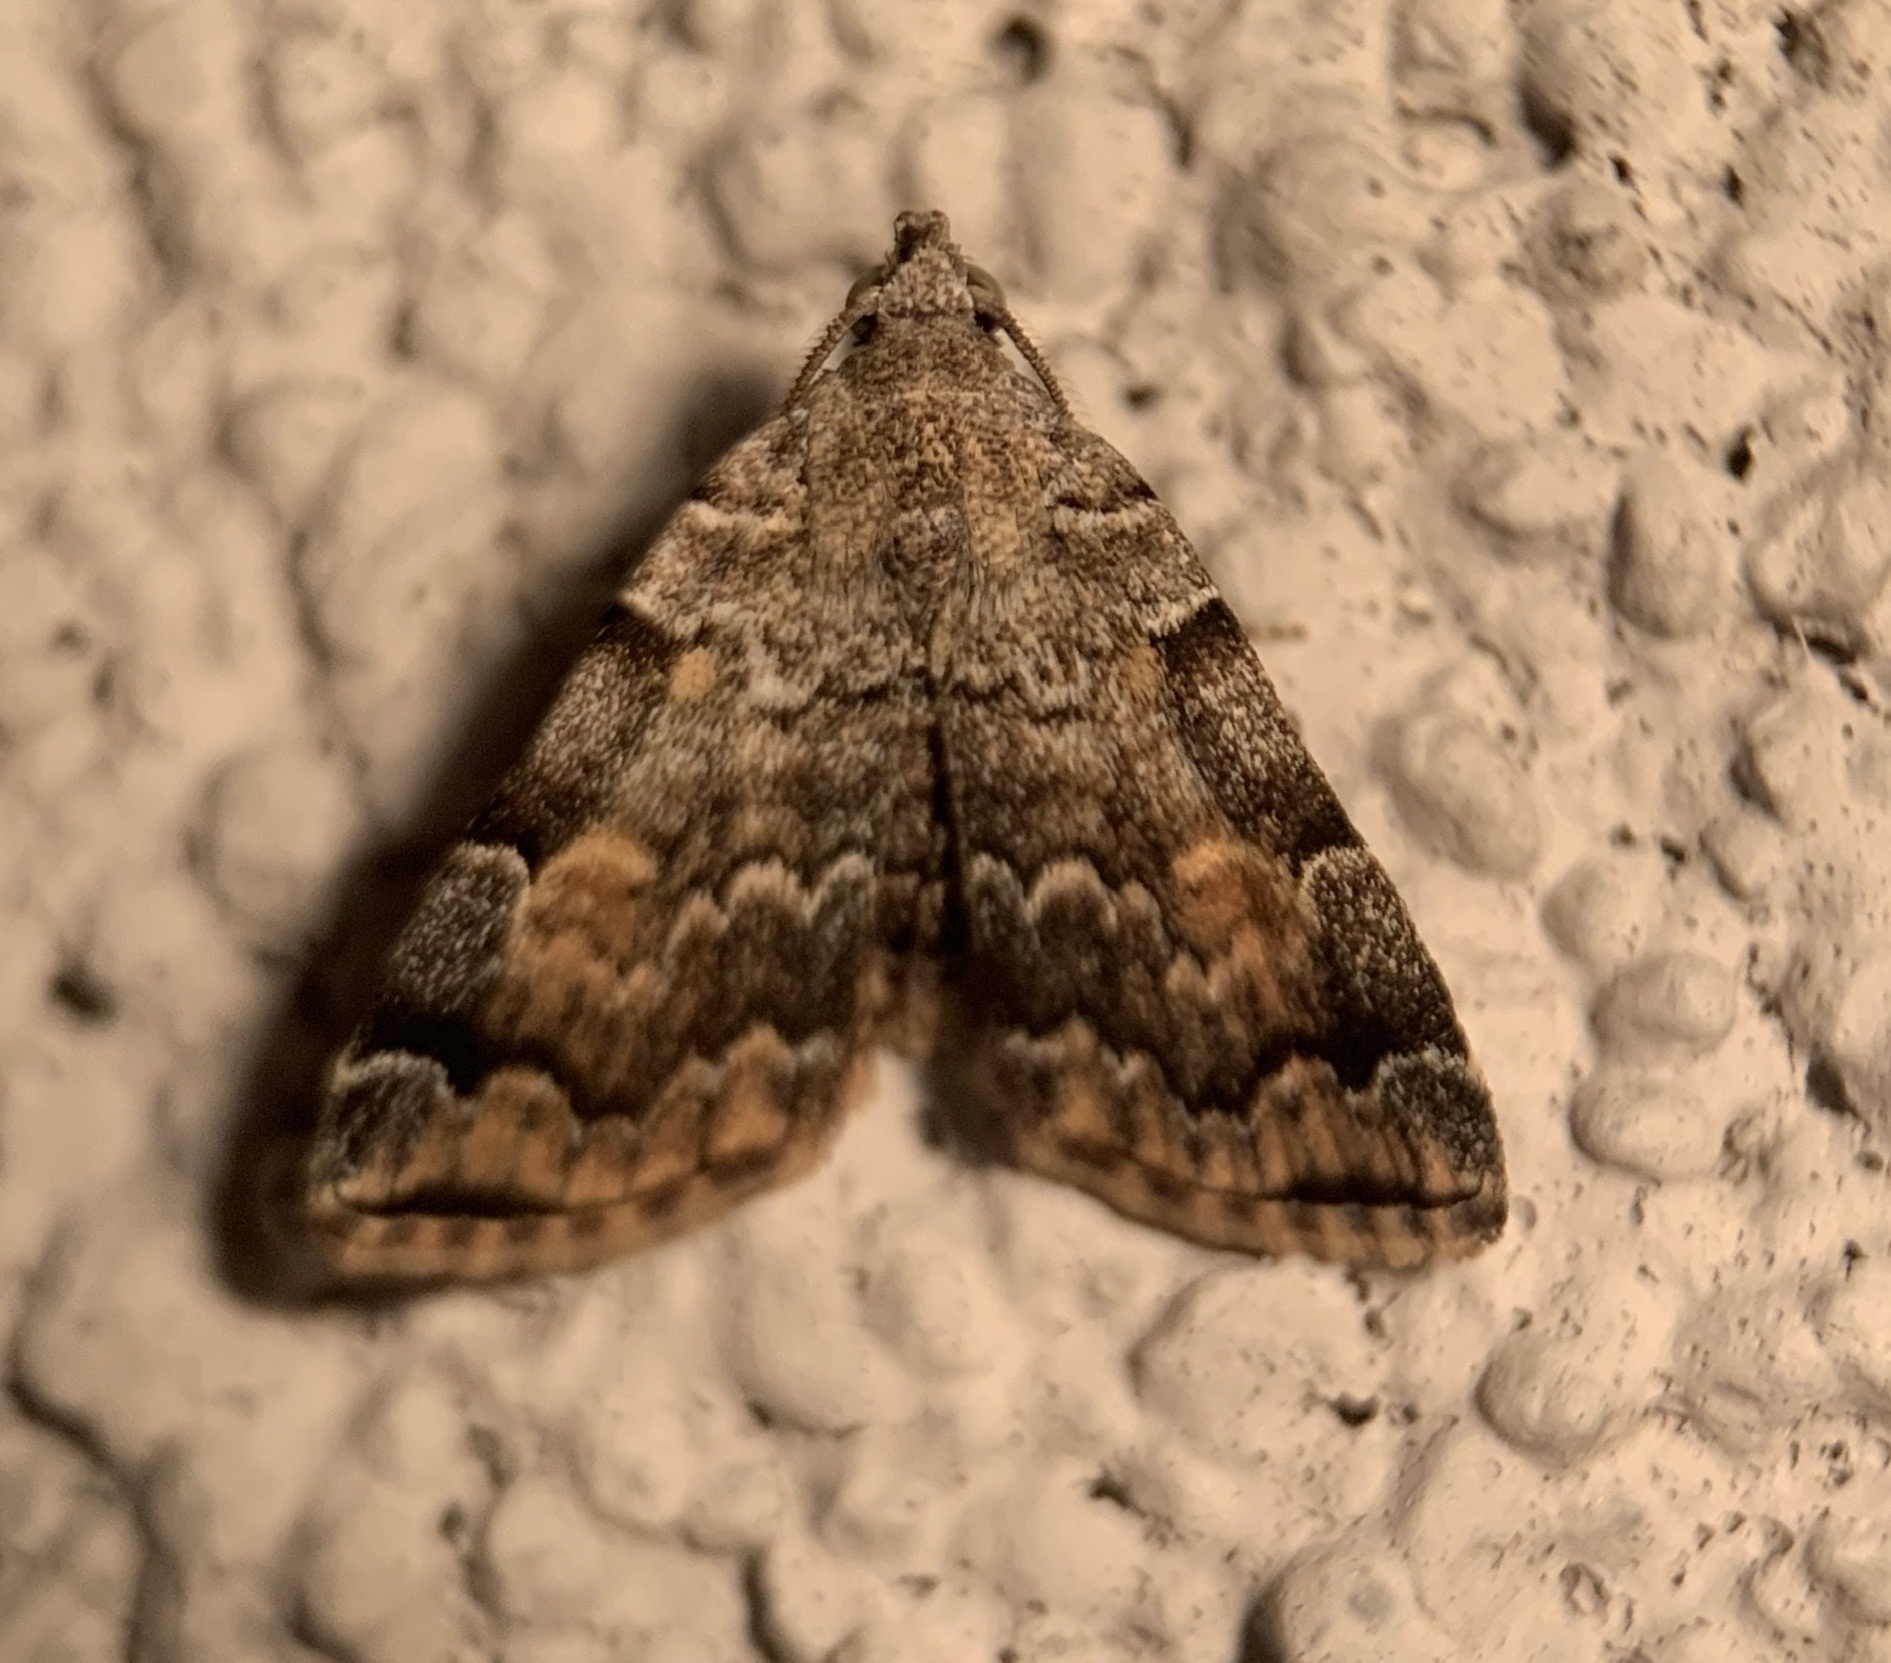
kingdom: Animalia
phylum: Arthropoda
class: Insecta
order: Lepidoptera
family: Erebidae
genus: Idia
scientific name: Idia americalis
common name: American idia moth
